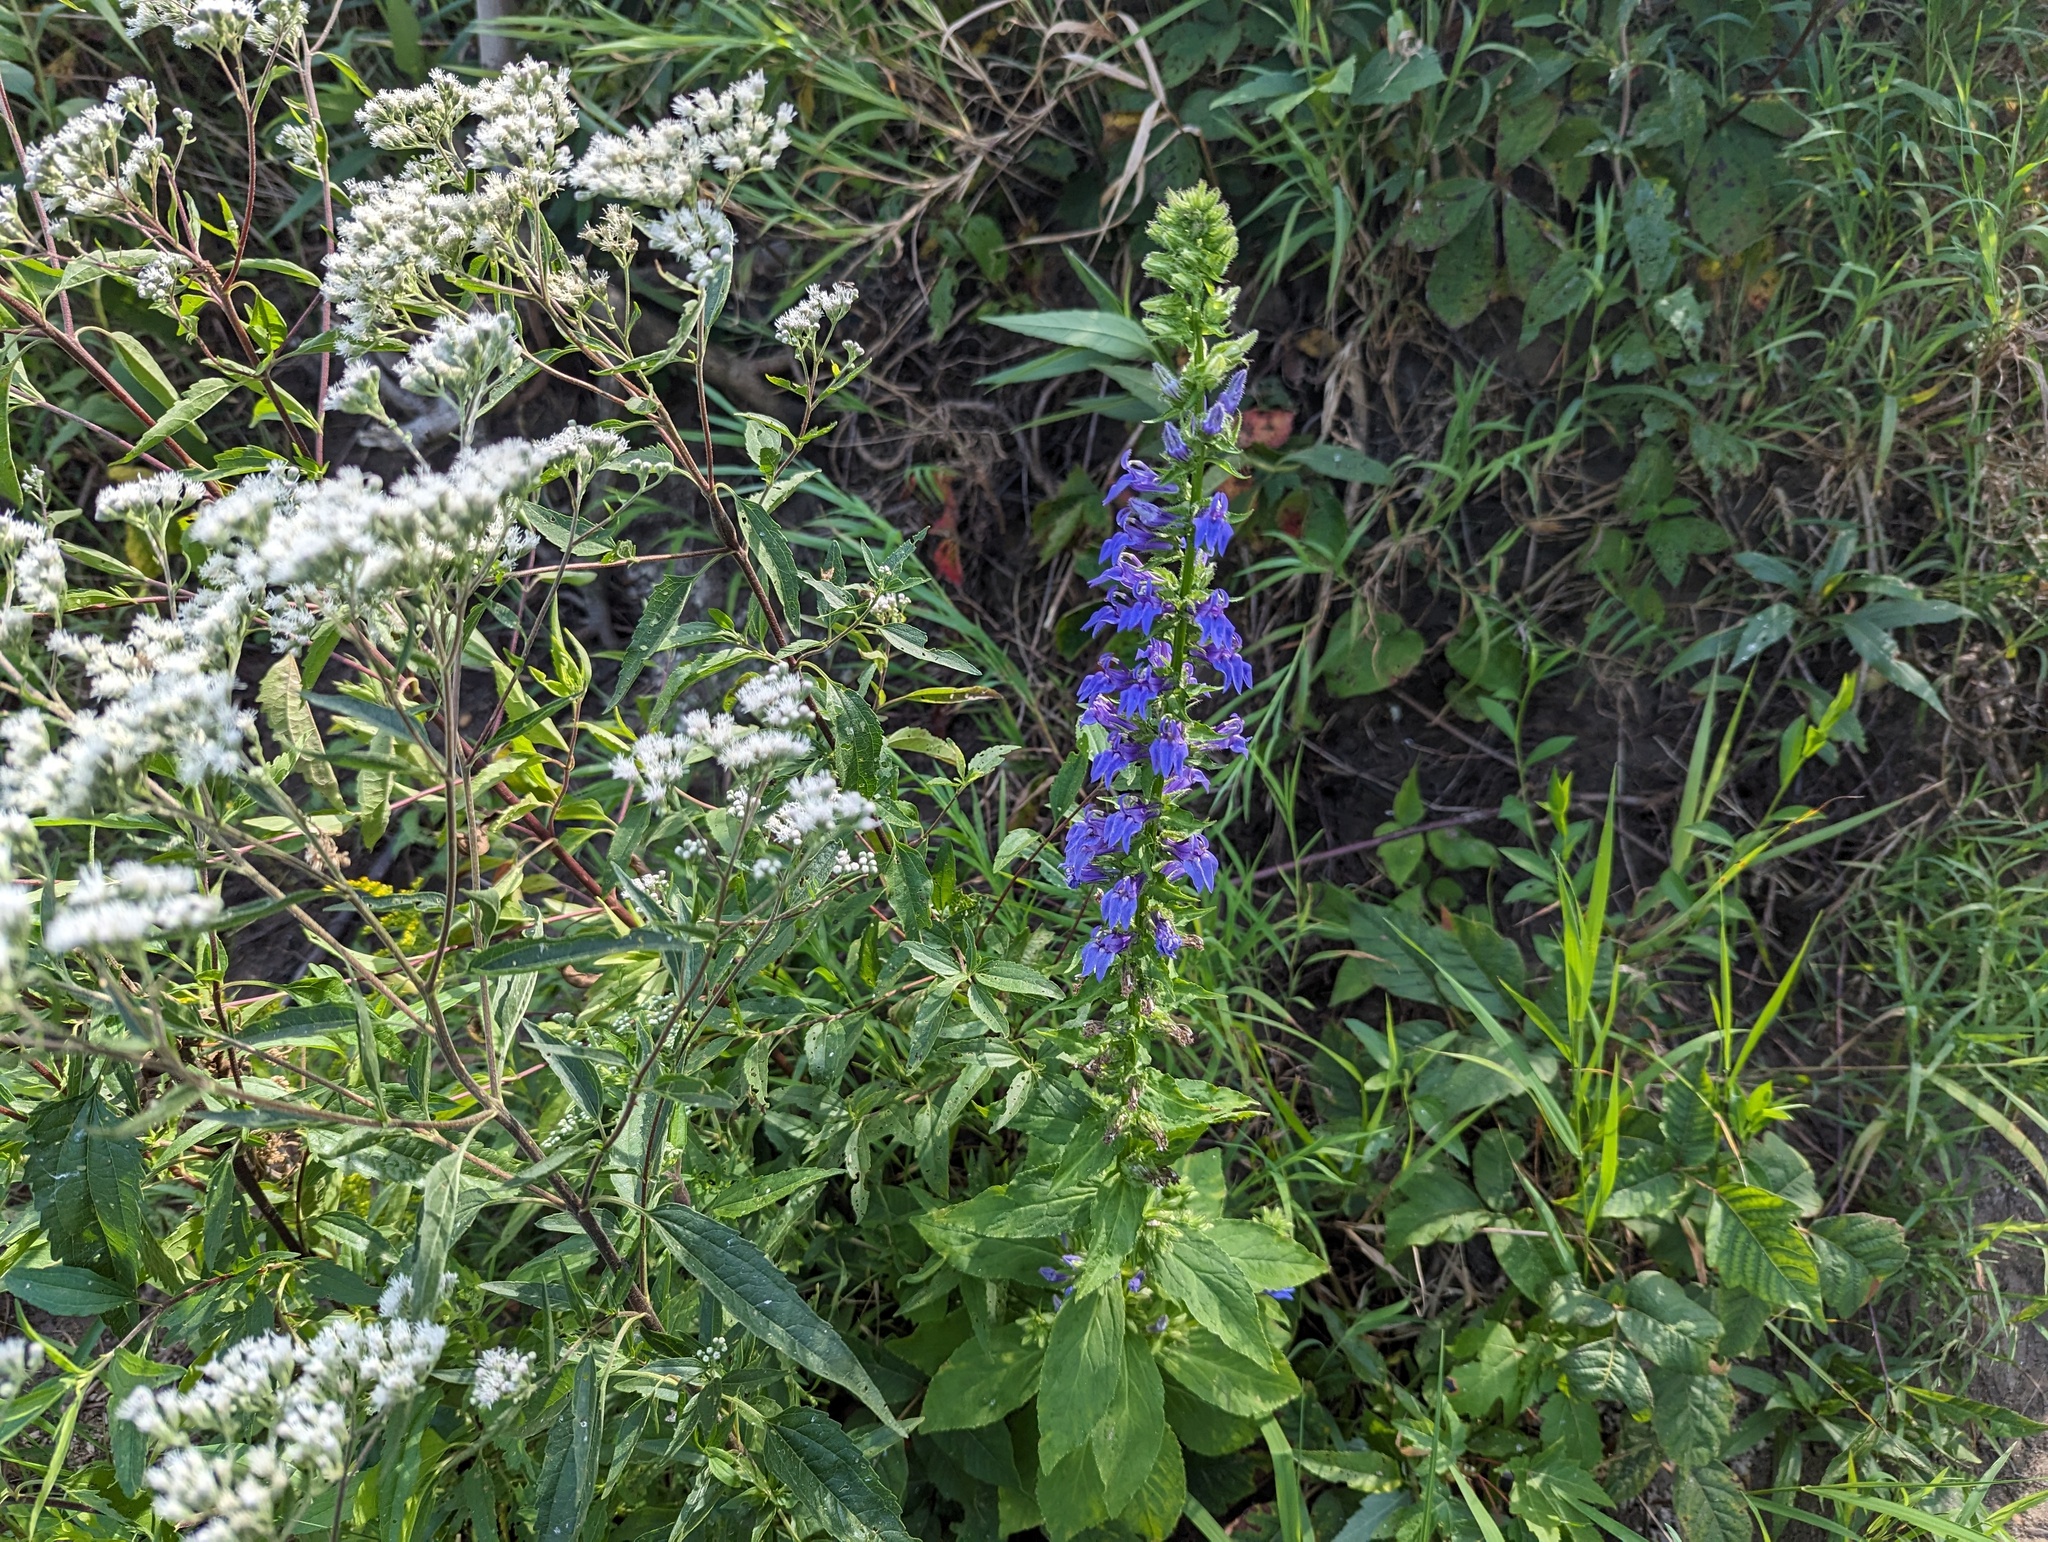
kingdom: Plantae
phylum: Tracheophyta
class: Magnoliopsida
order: Asterales
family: Campanulaceae
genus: Lobelia
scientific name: Lobelia siphilitica
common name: Great lobelia
